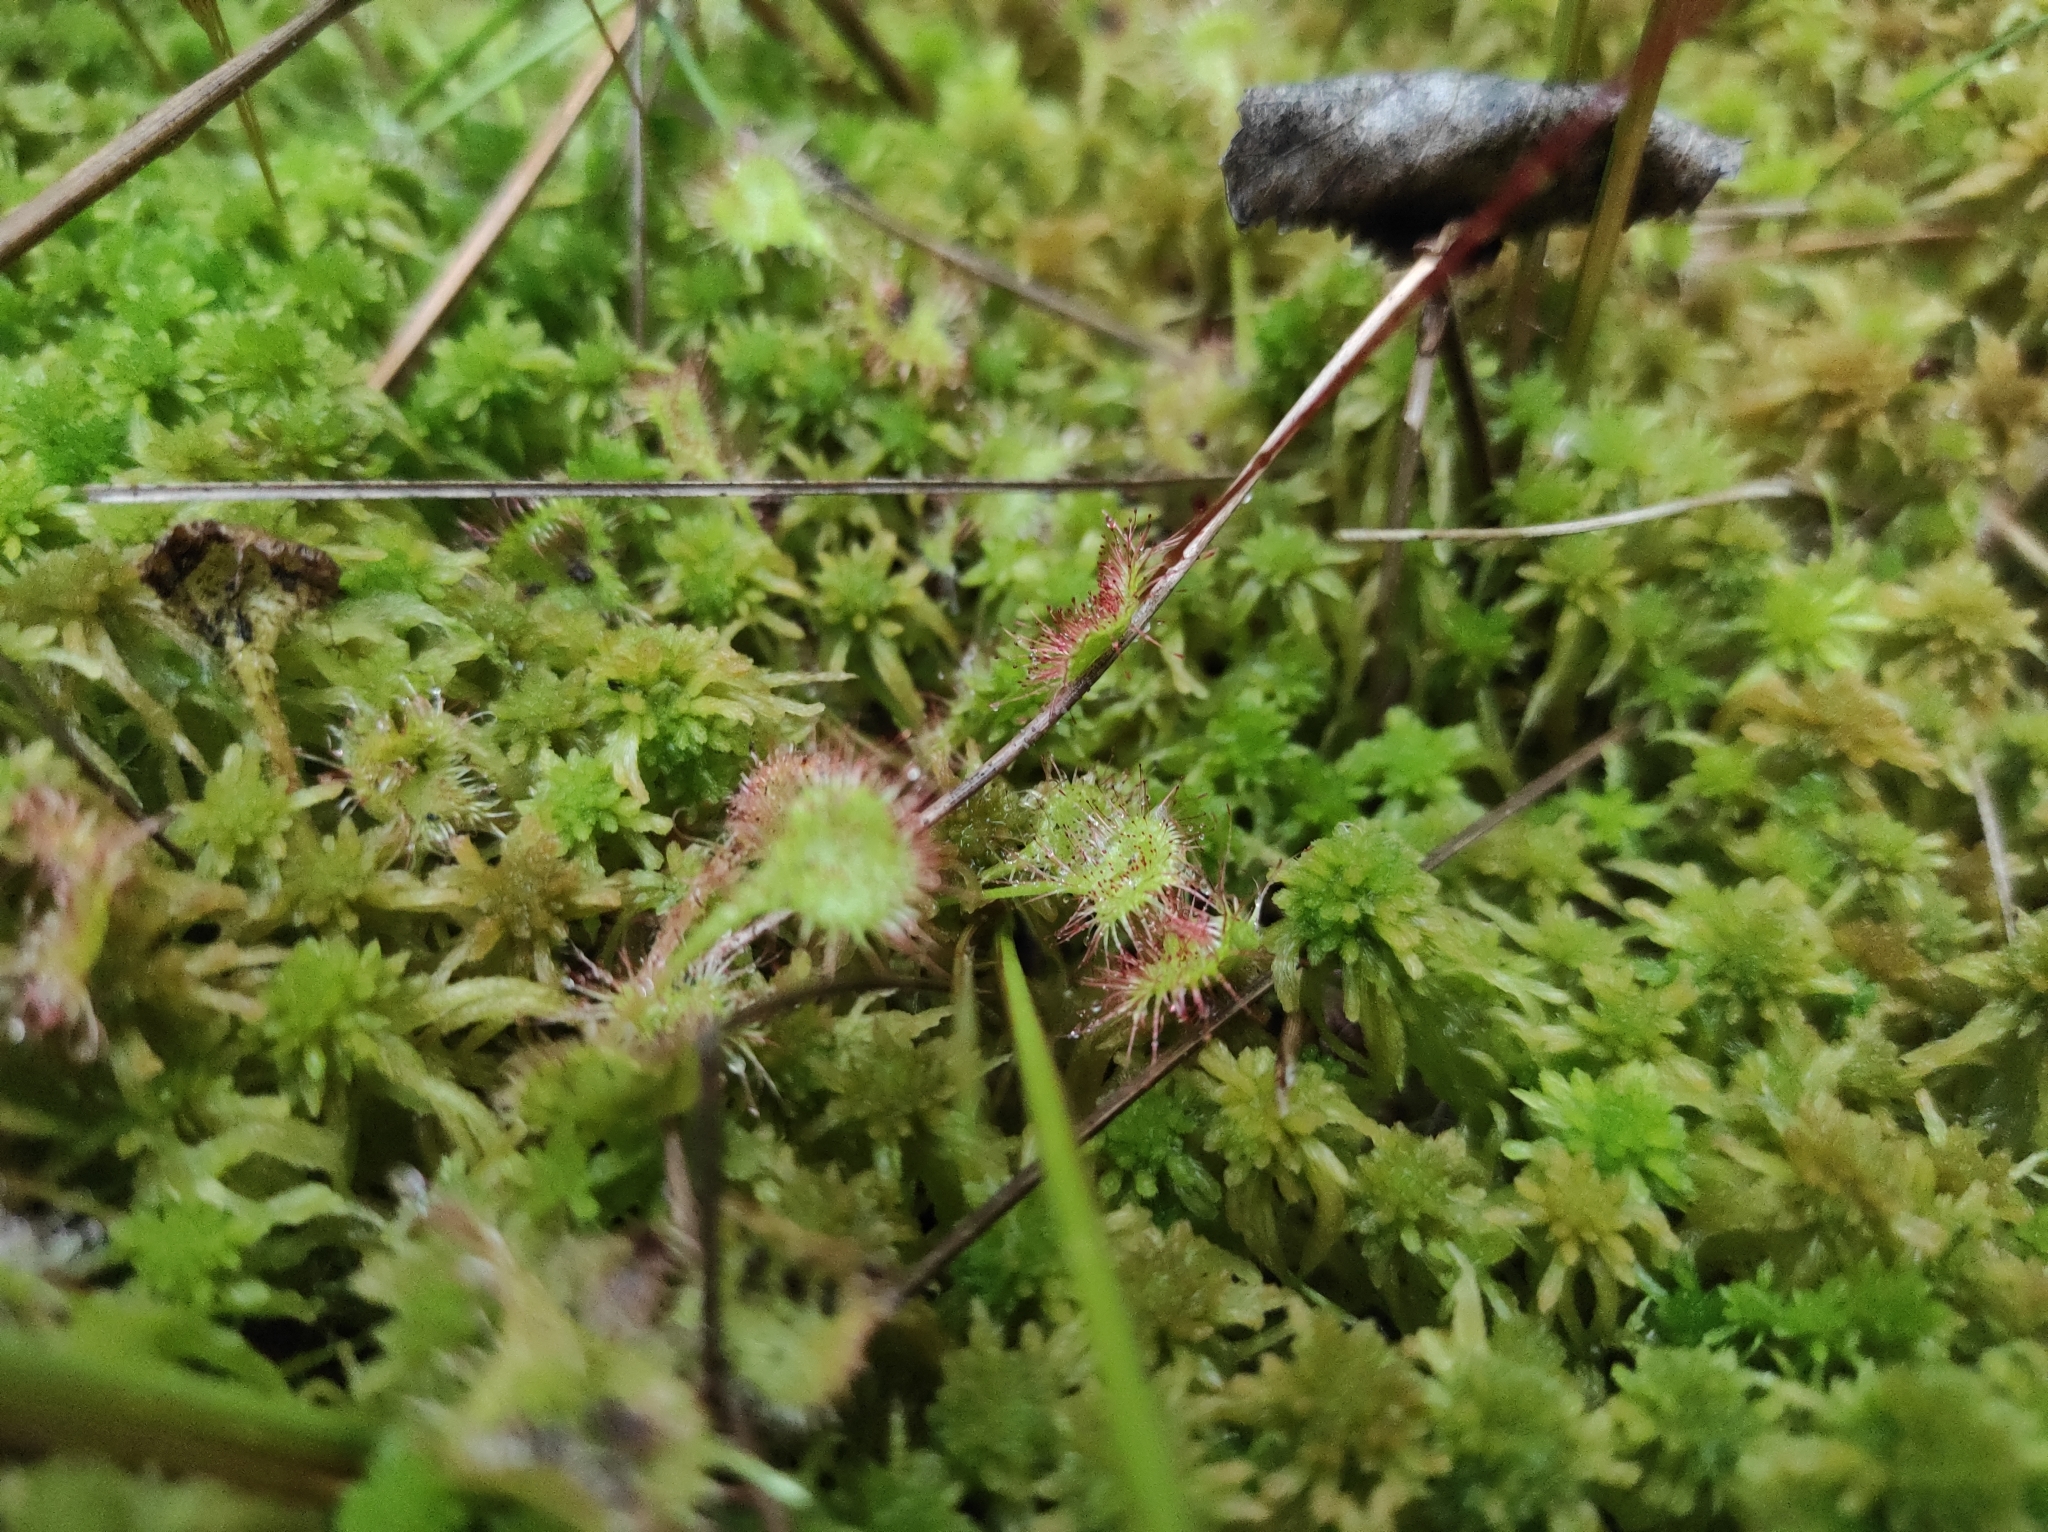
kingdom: Plantae
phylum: Tracheophyta
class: Magnoliopsida
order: Caryophyllales
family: Droseraceae
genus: Drosera
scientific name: Drosera rotundifolia
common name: Round-leaved sundew
